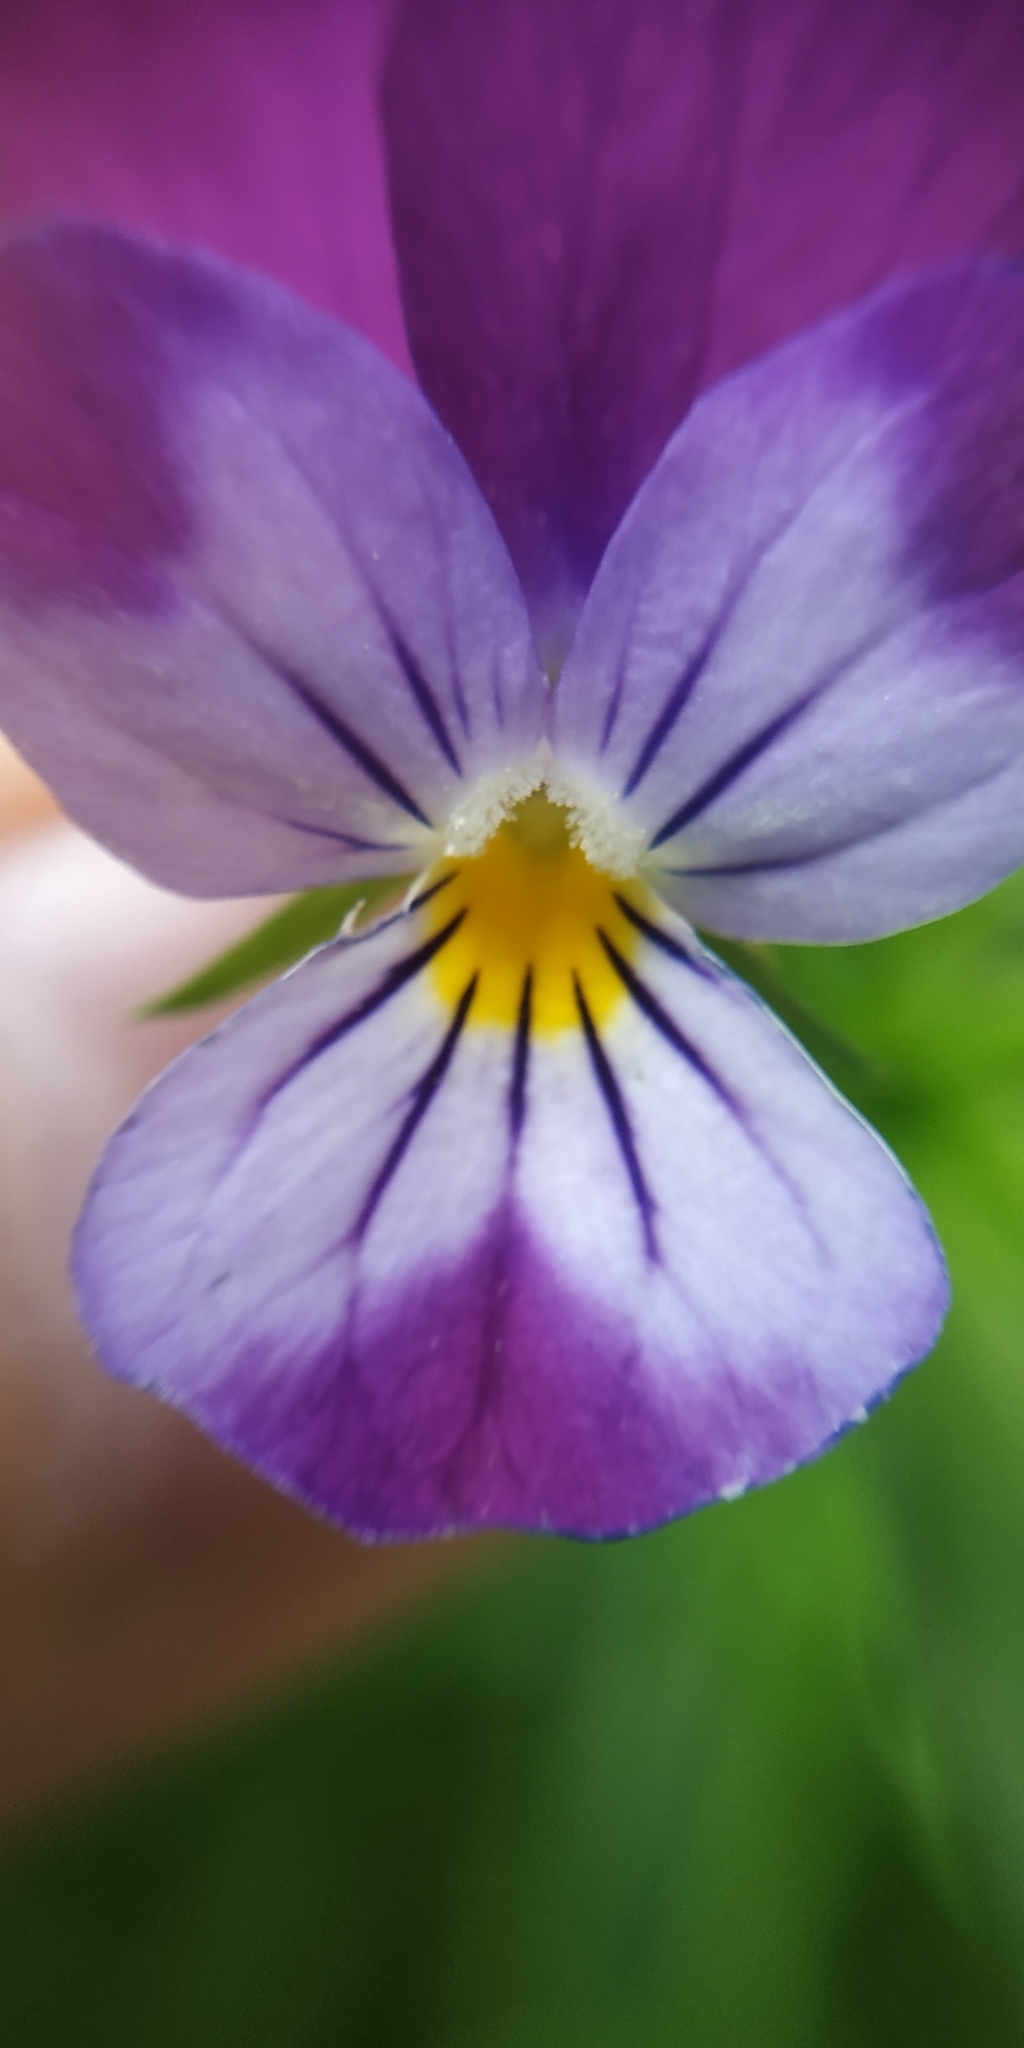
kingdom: Plantae
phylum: Tracheophyta
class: Magnoliopsida
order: Malpighiales
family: Violaceae
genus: Viola
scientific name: Viola tricolor
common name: Pansy
